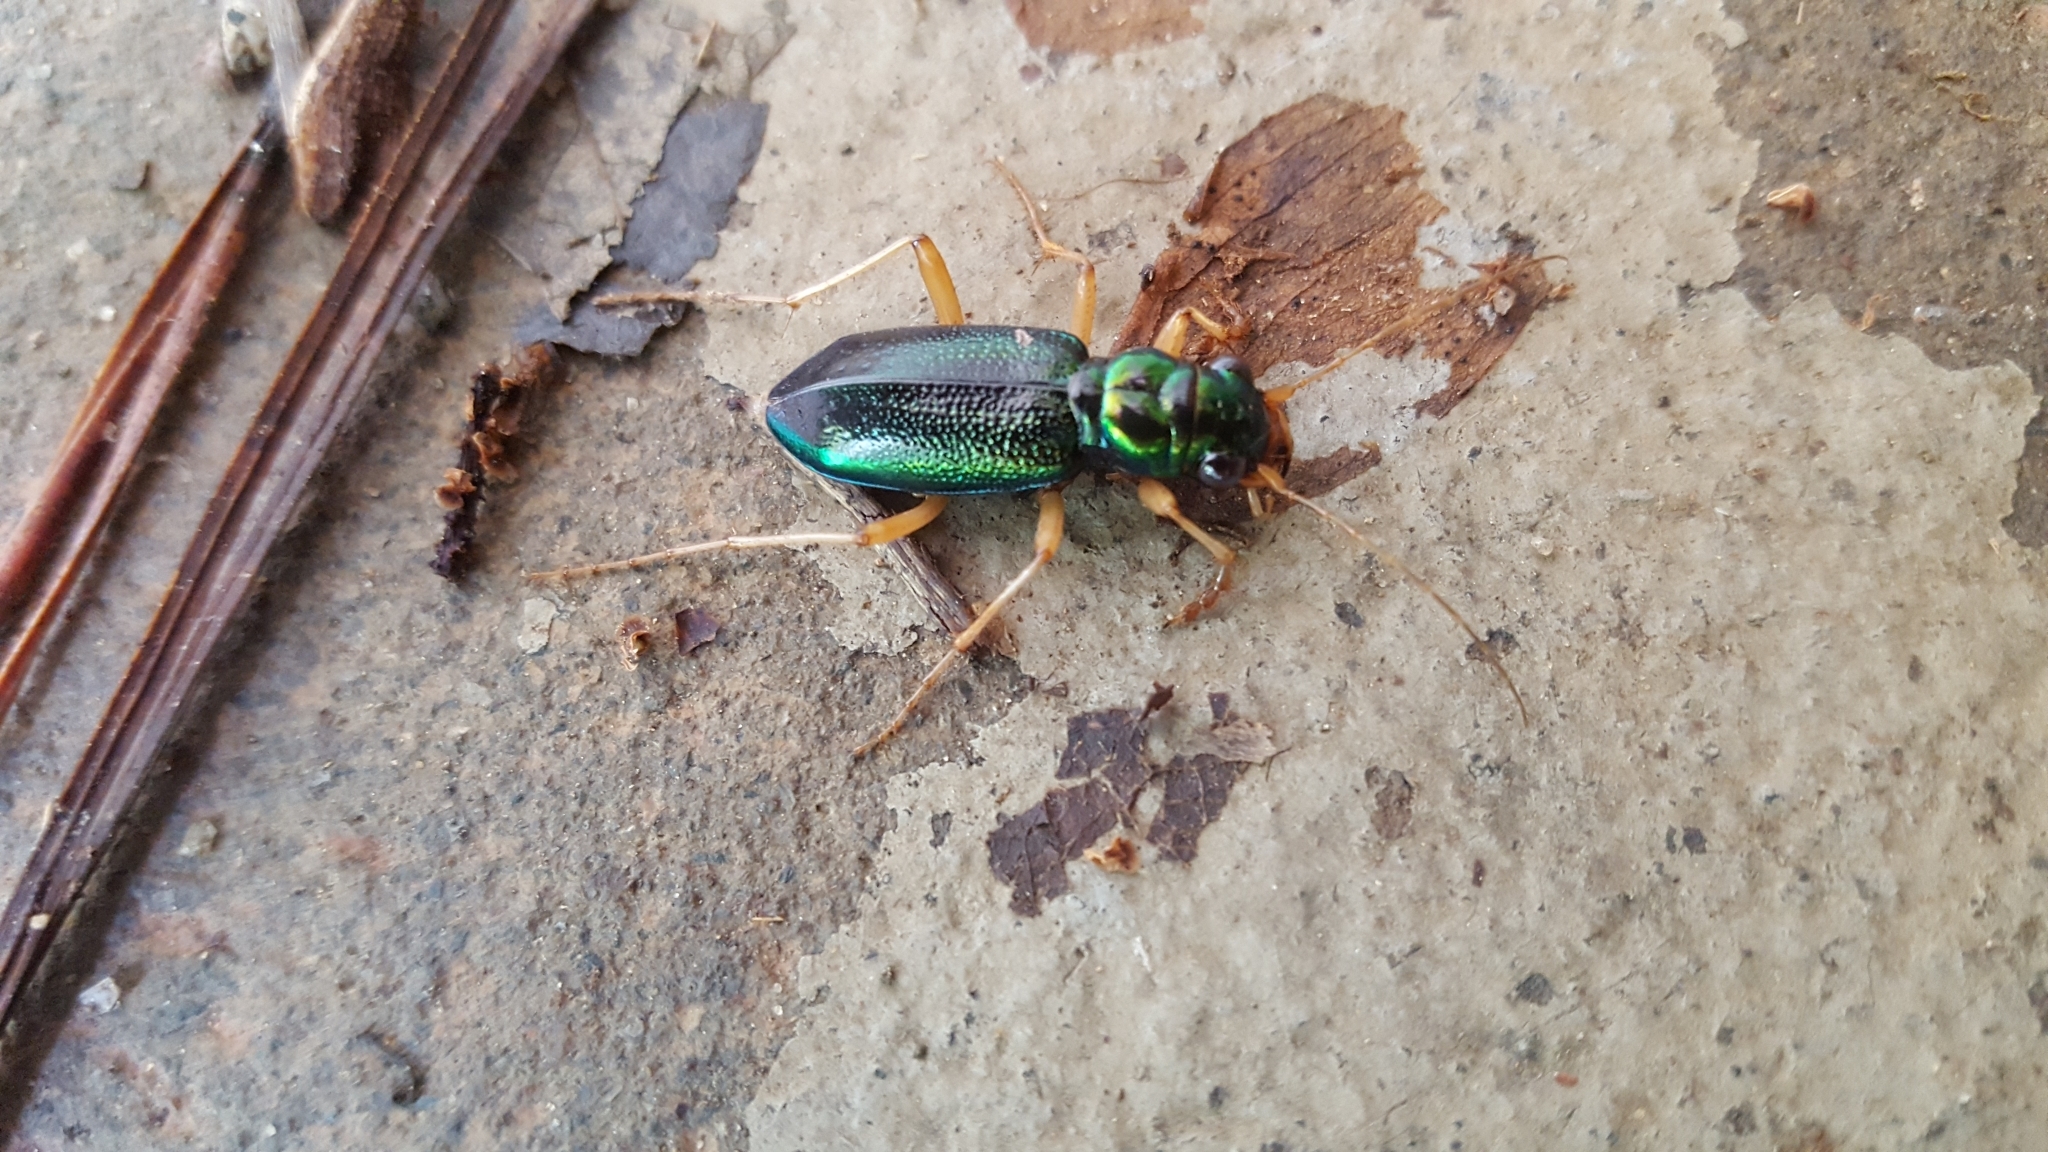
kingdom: Animalia
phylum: Arthropoda
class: Insecta
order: Coleoptera
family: Carabidae
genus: Tetracha
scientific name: Tetracha virginica
